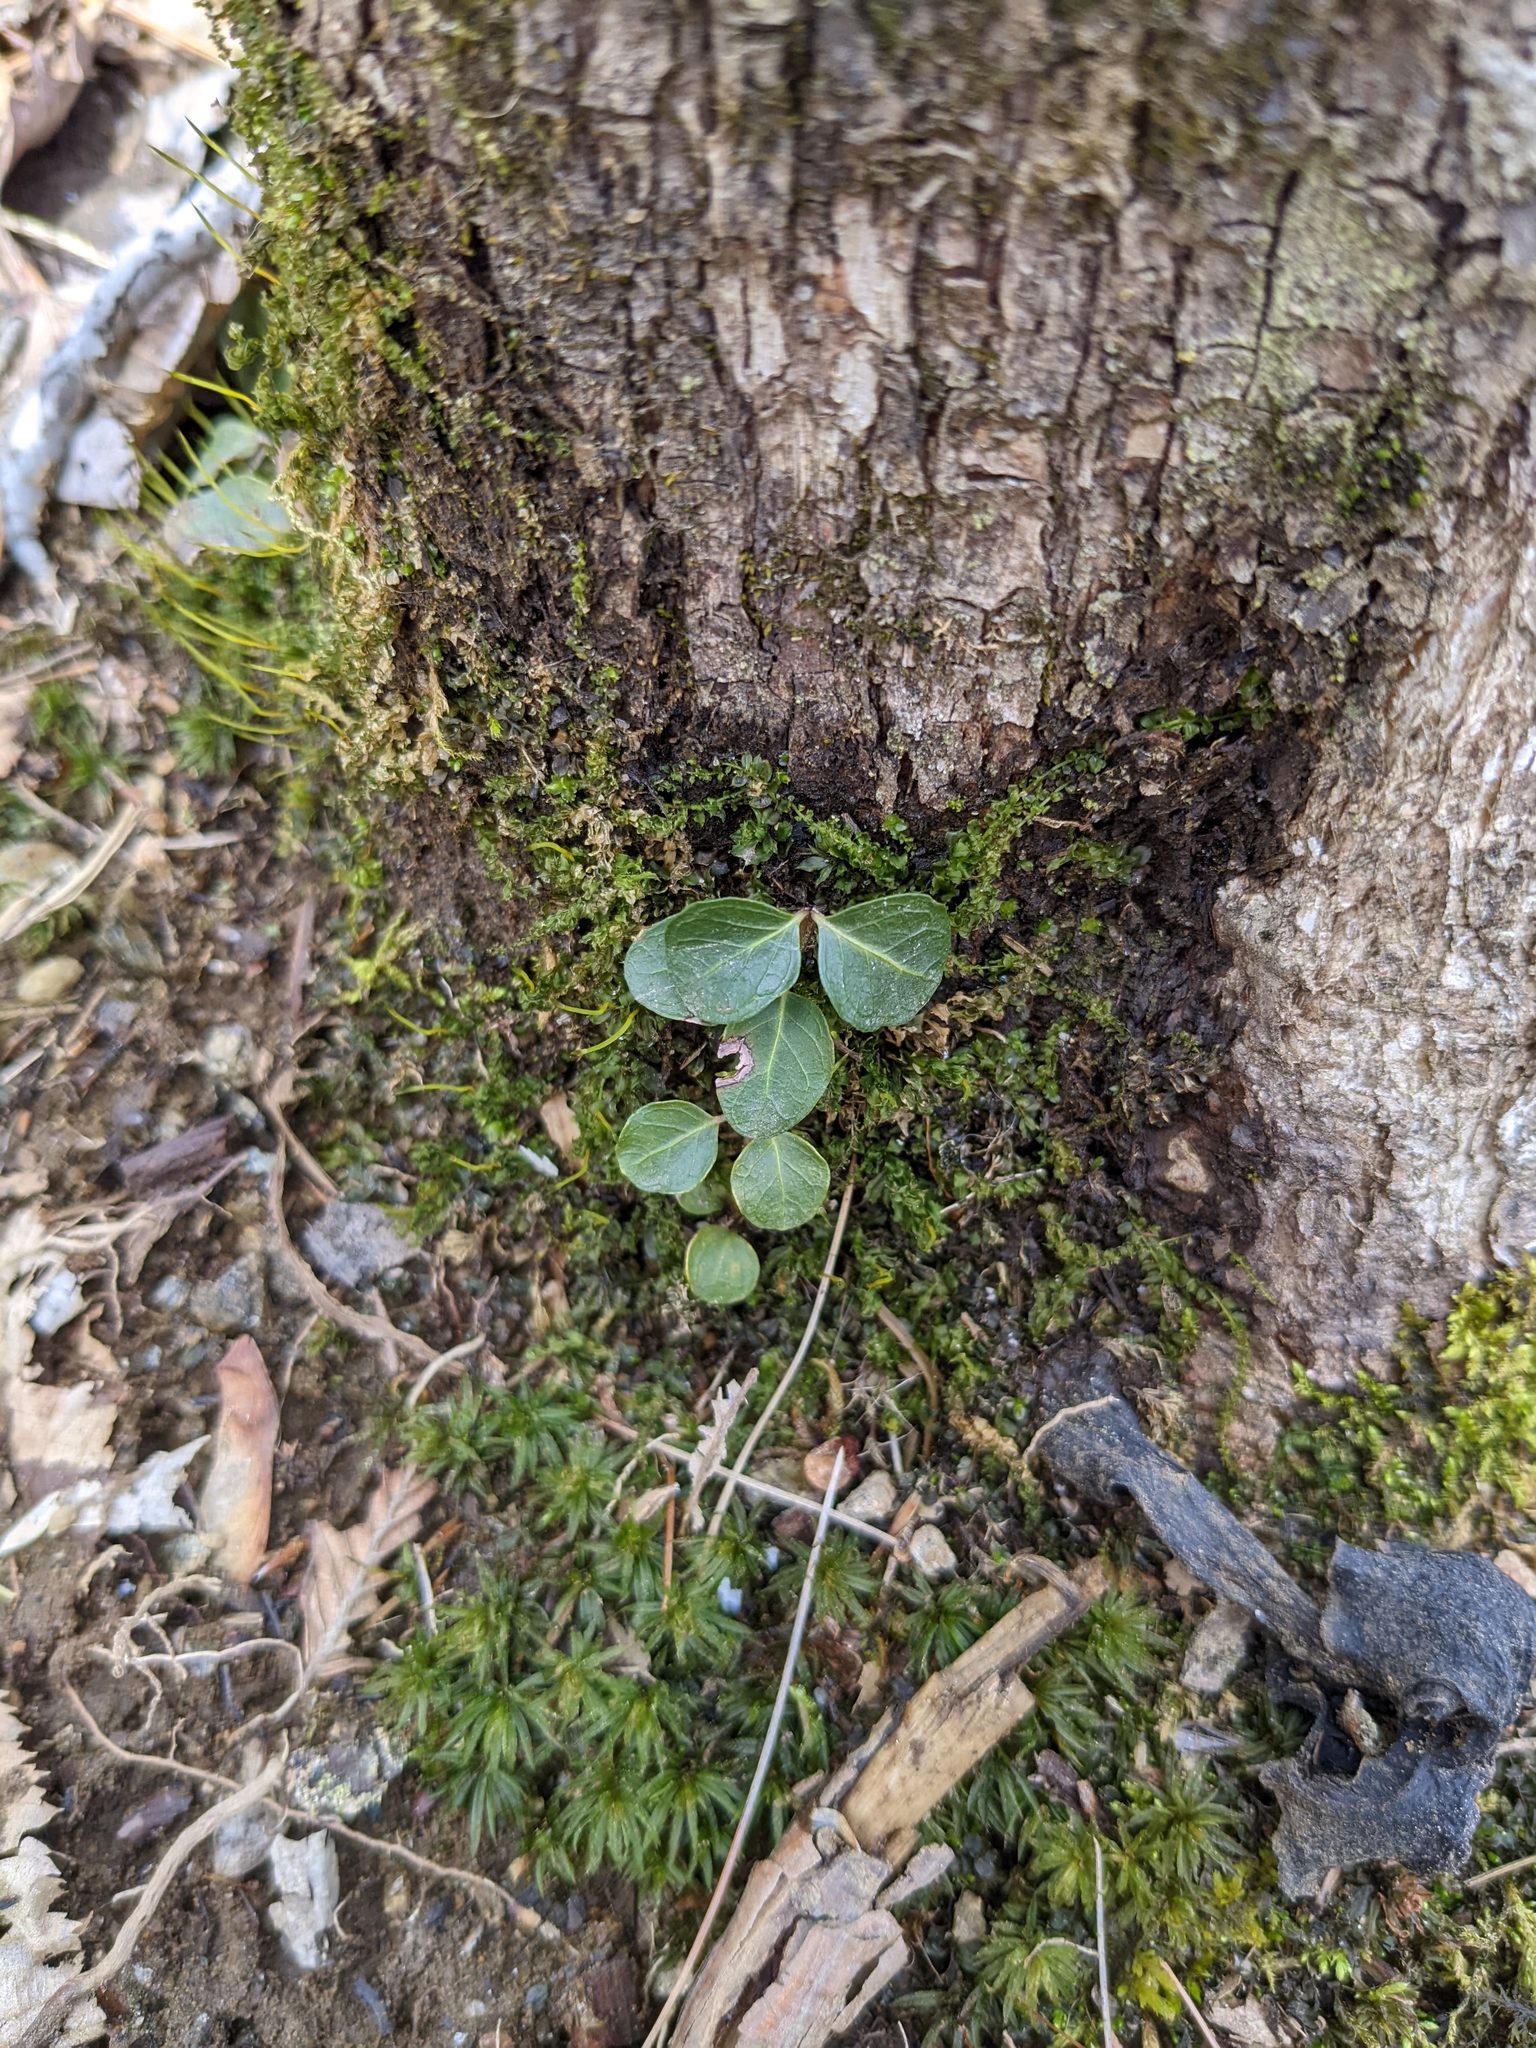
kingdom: Plantae
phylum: Tracheophyta
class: Magnoliopsida
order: Gentianales
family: Rubiaceae
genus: Mitchella
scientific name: Mitchella repens
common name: Partridge-berry
